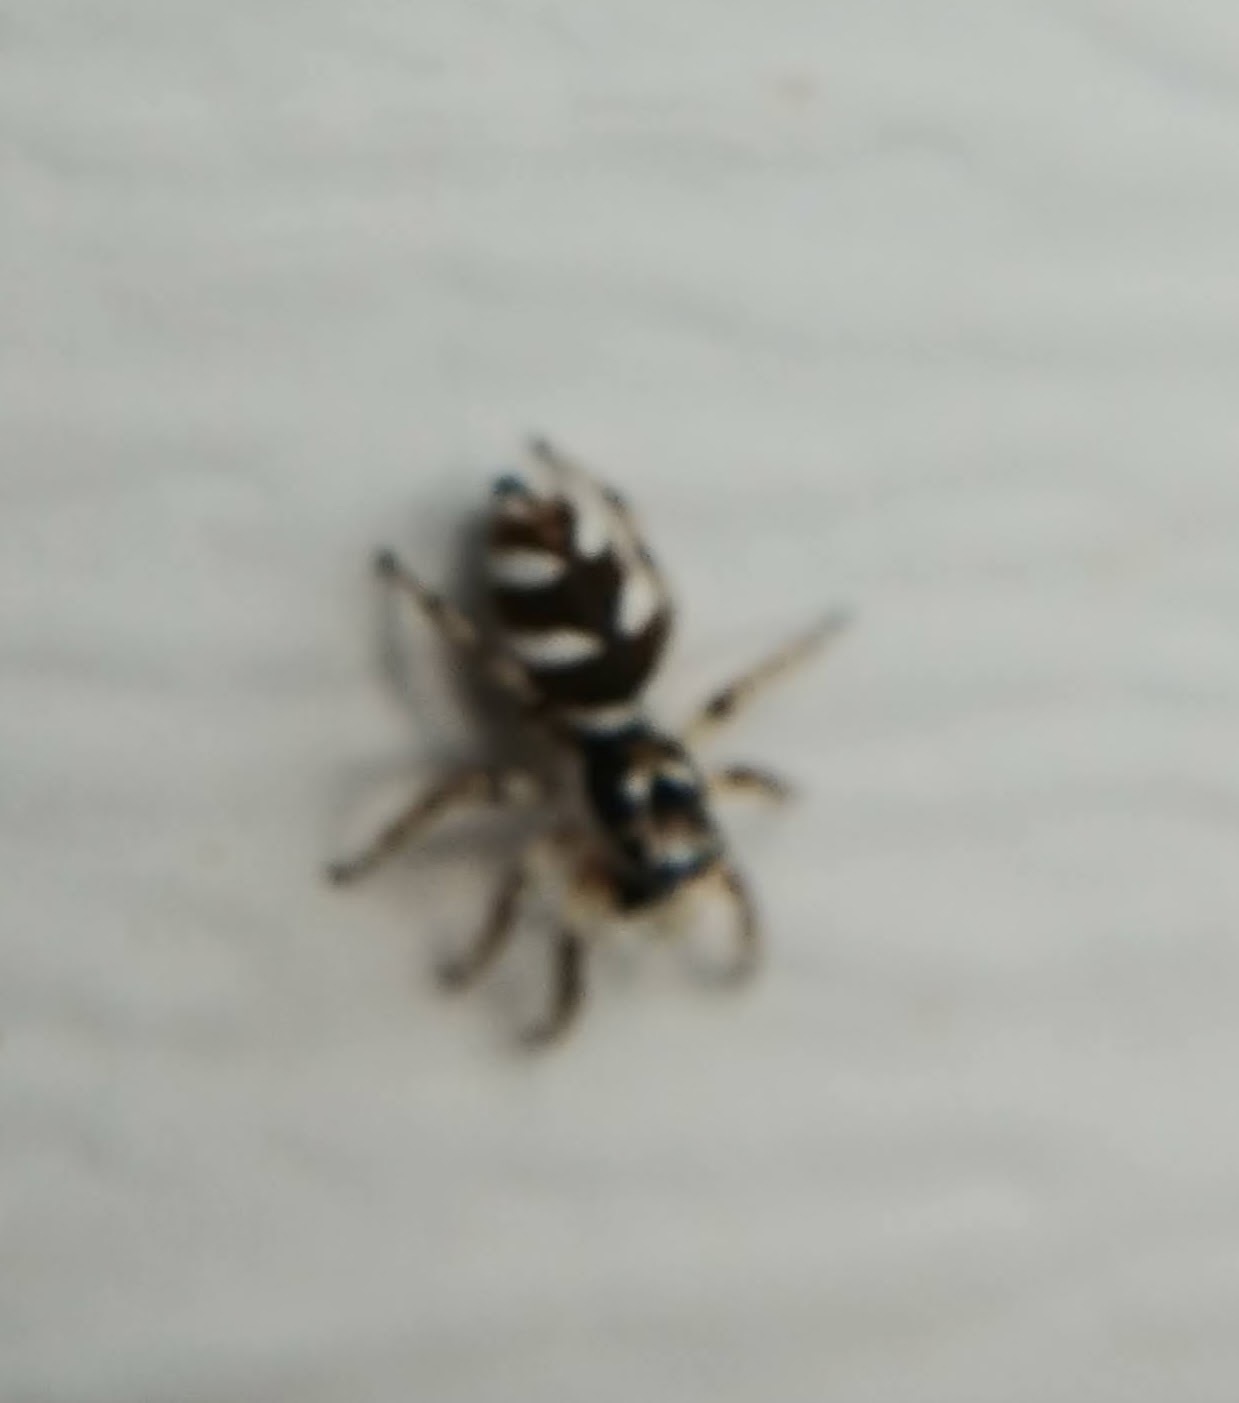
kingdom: Animalia
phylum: Arthropoda
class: Arachnida
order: Araneae
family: Salticidae
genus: Salticus
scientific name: Salticus scenicus
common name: Zebra jumper
